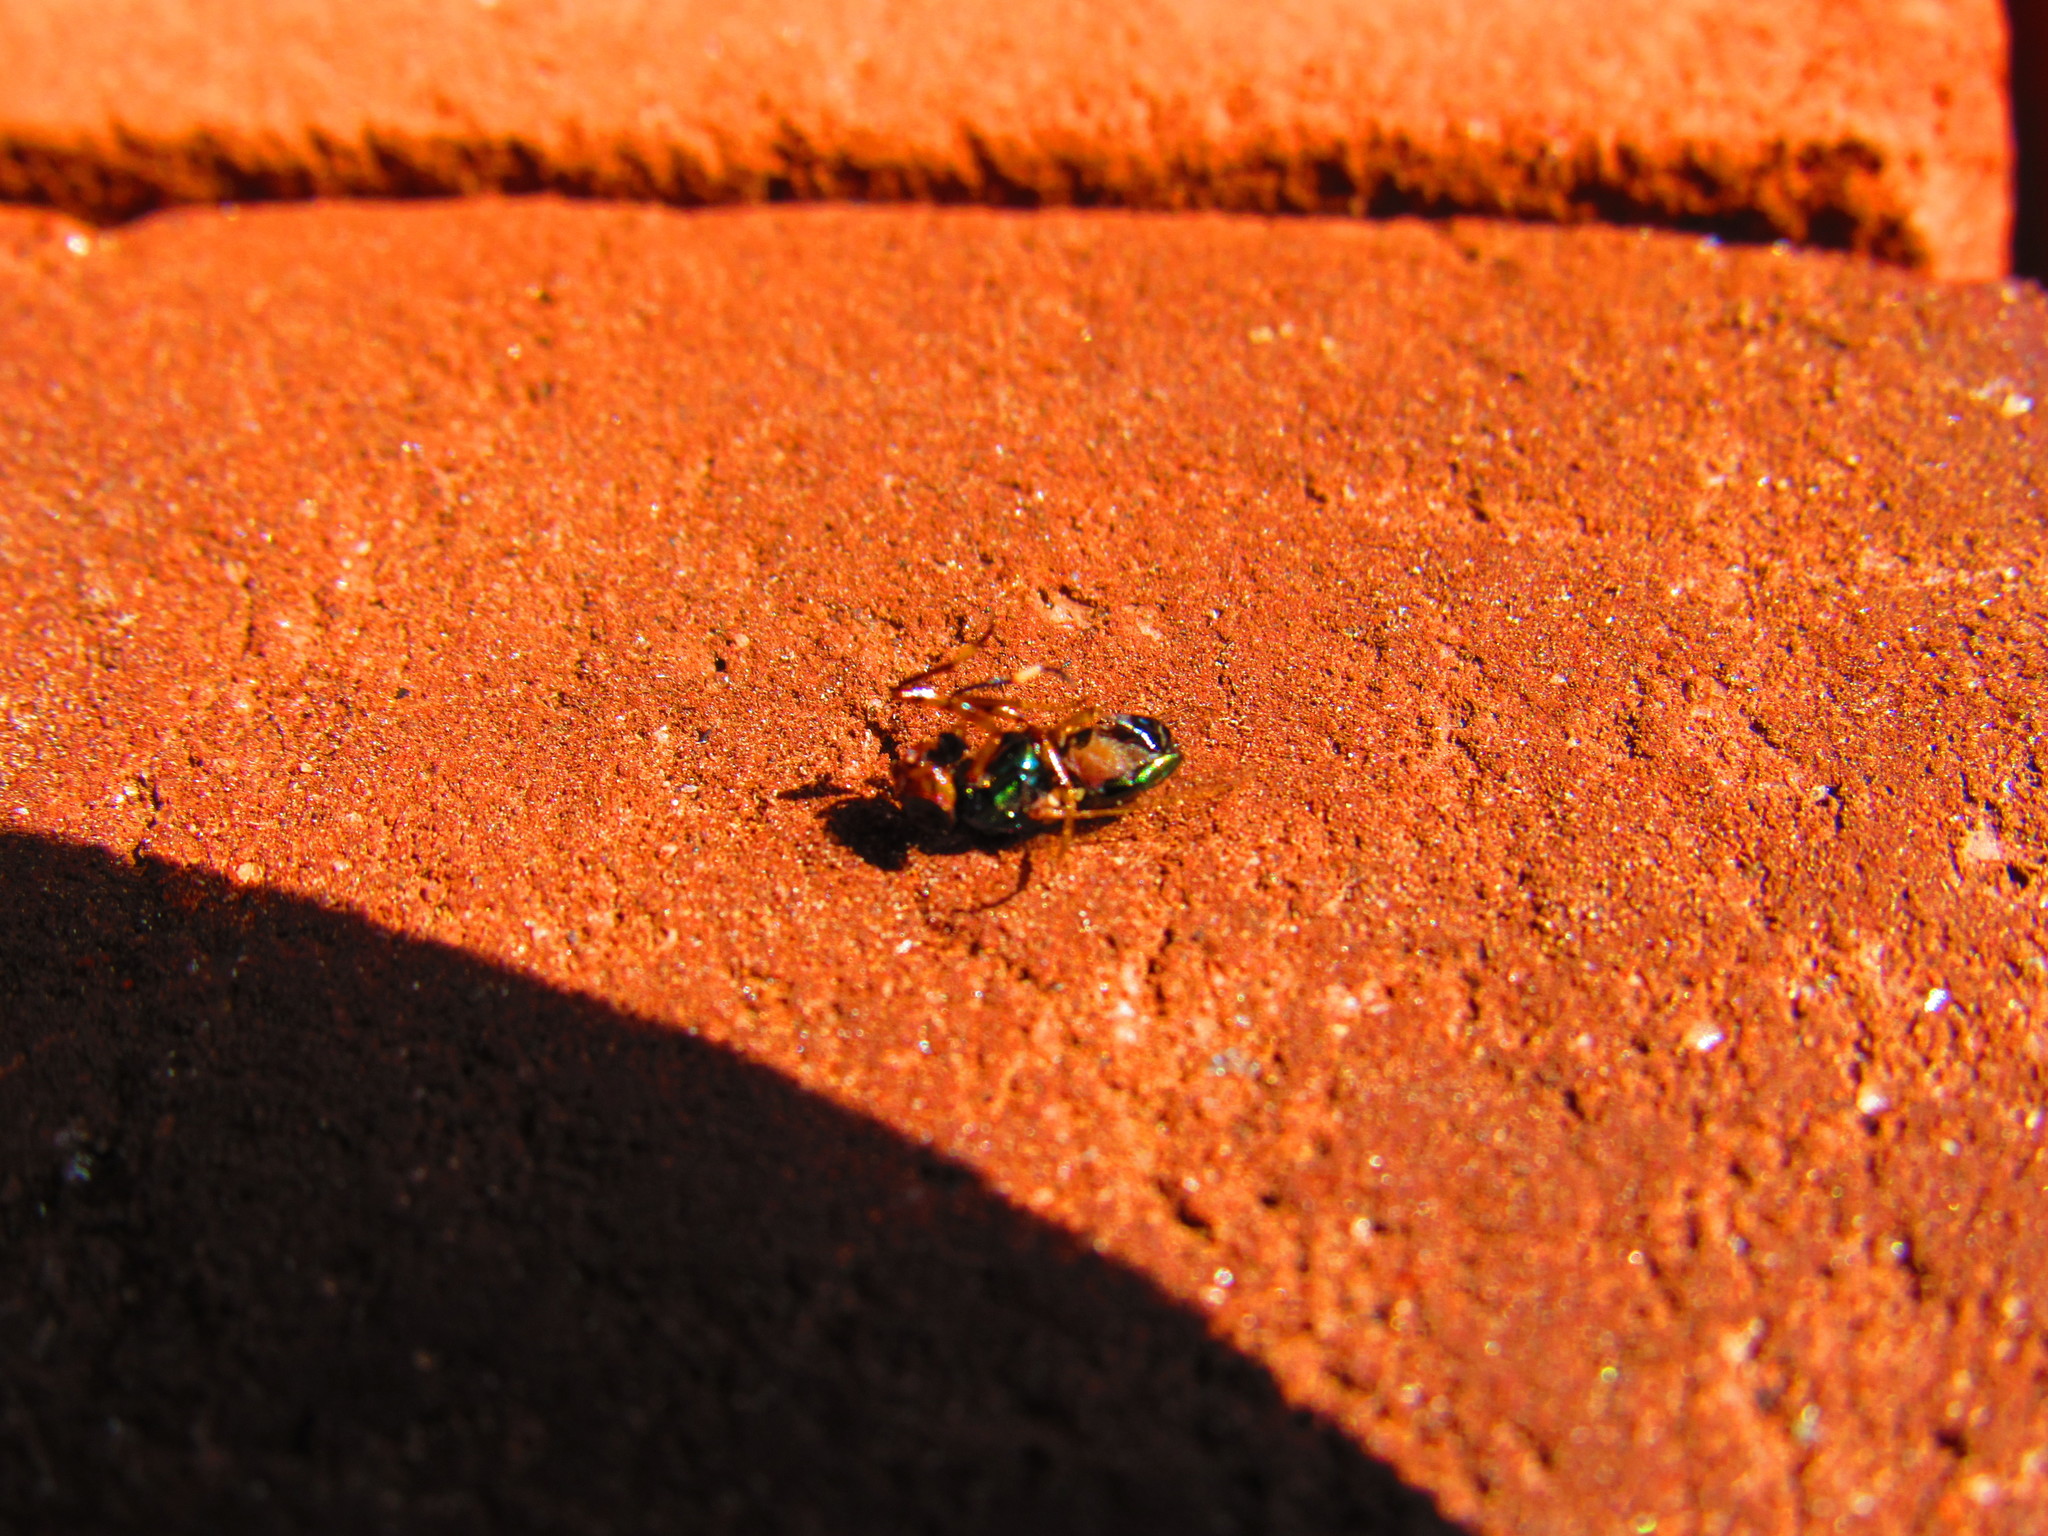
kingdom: Animalia
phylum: Arthropoda
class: Insecta
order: Diptera
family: Ulidiidae
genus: Physiphora
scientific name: Physiphora alceae
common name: Picture-winged fly
